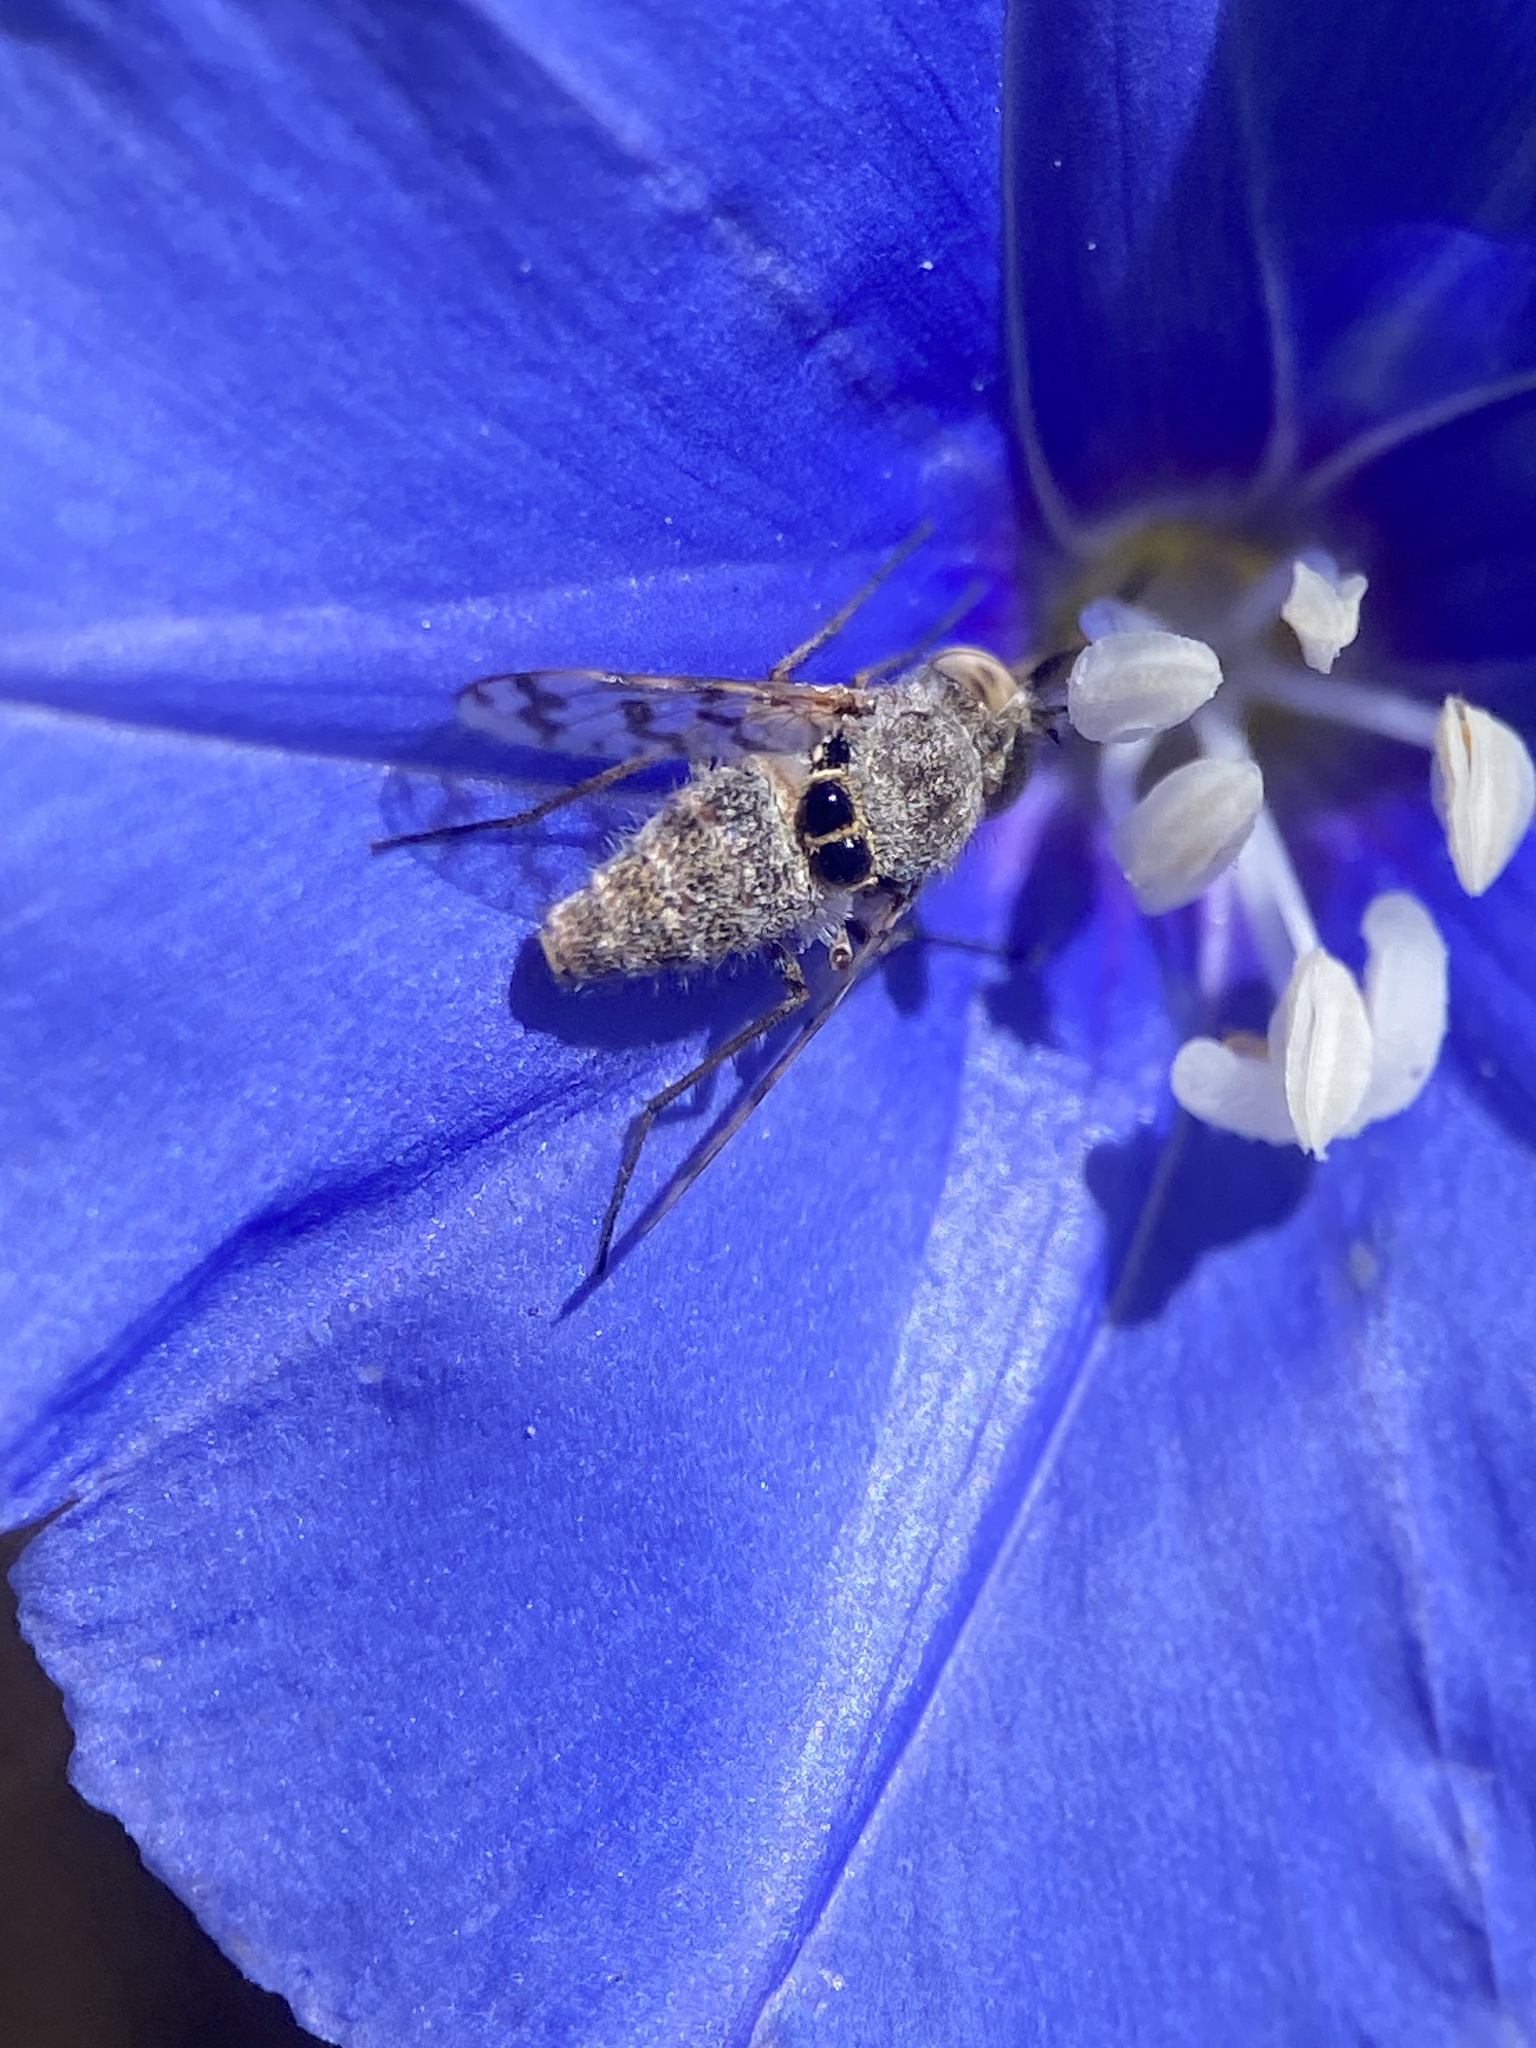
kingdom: Animalia
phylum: Arthropoda
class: Insecta
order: Diptera
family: Bombyliidae
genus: Geminaria
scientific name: Geminaria canalis
